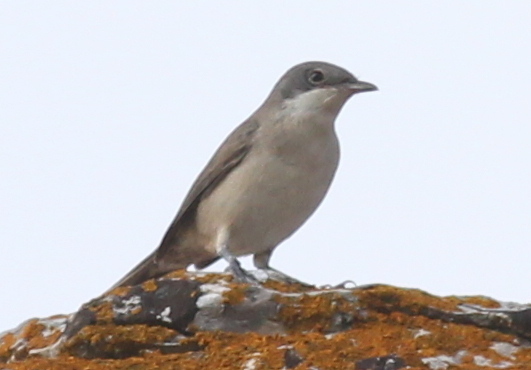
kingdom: Animalia
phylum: Chordata
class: Aves
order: Passeriformes
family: Sylviidae
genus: Sylvia
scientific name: Sylvia crassirostris
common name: Eastern orphean warbler
